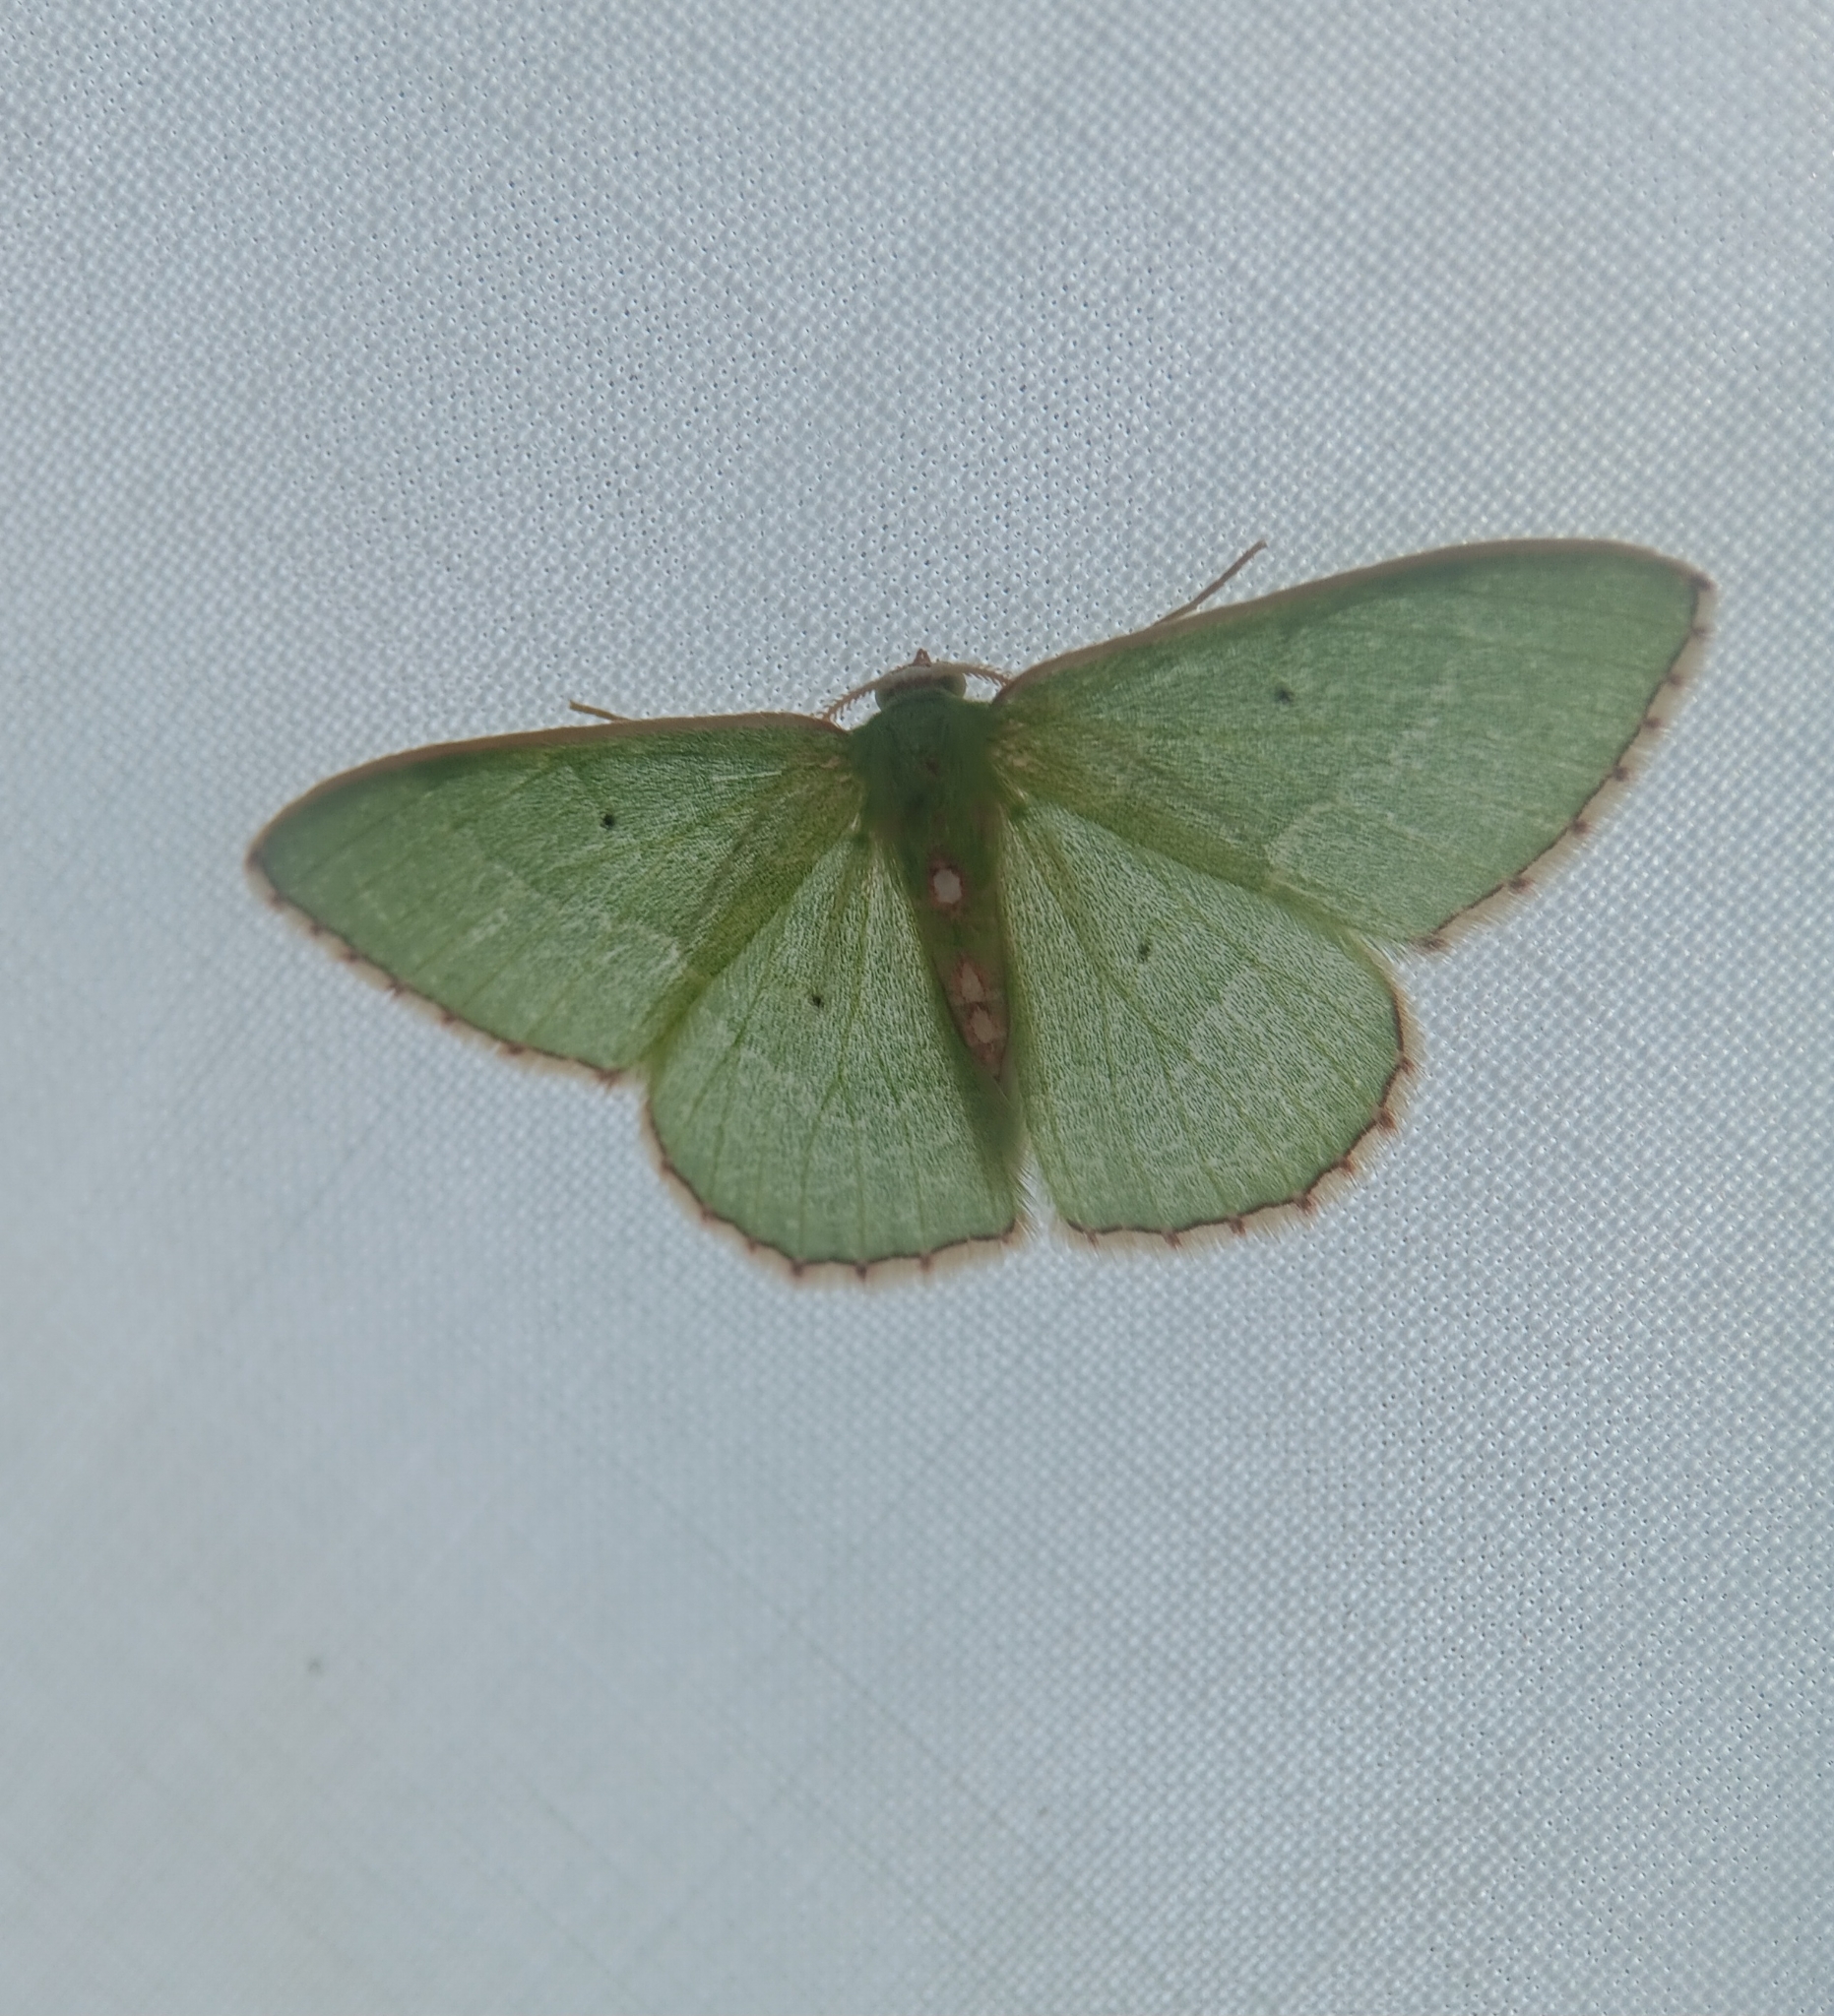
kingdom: Animalia
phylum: Arthropoda
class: Insecta
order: Lepidoptera
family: Geometridae
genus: Nemoria
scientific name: Nemoria lixaria
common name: Red-bordered emerald
